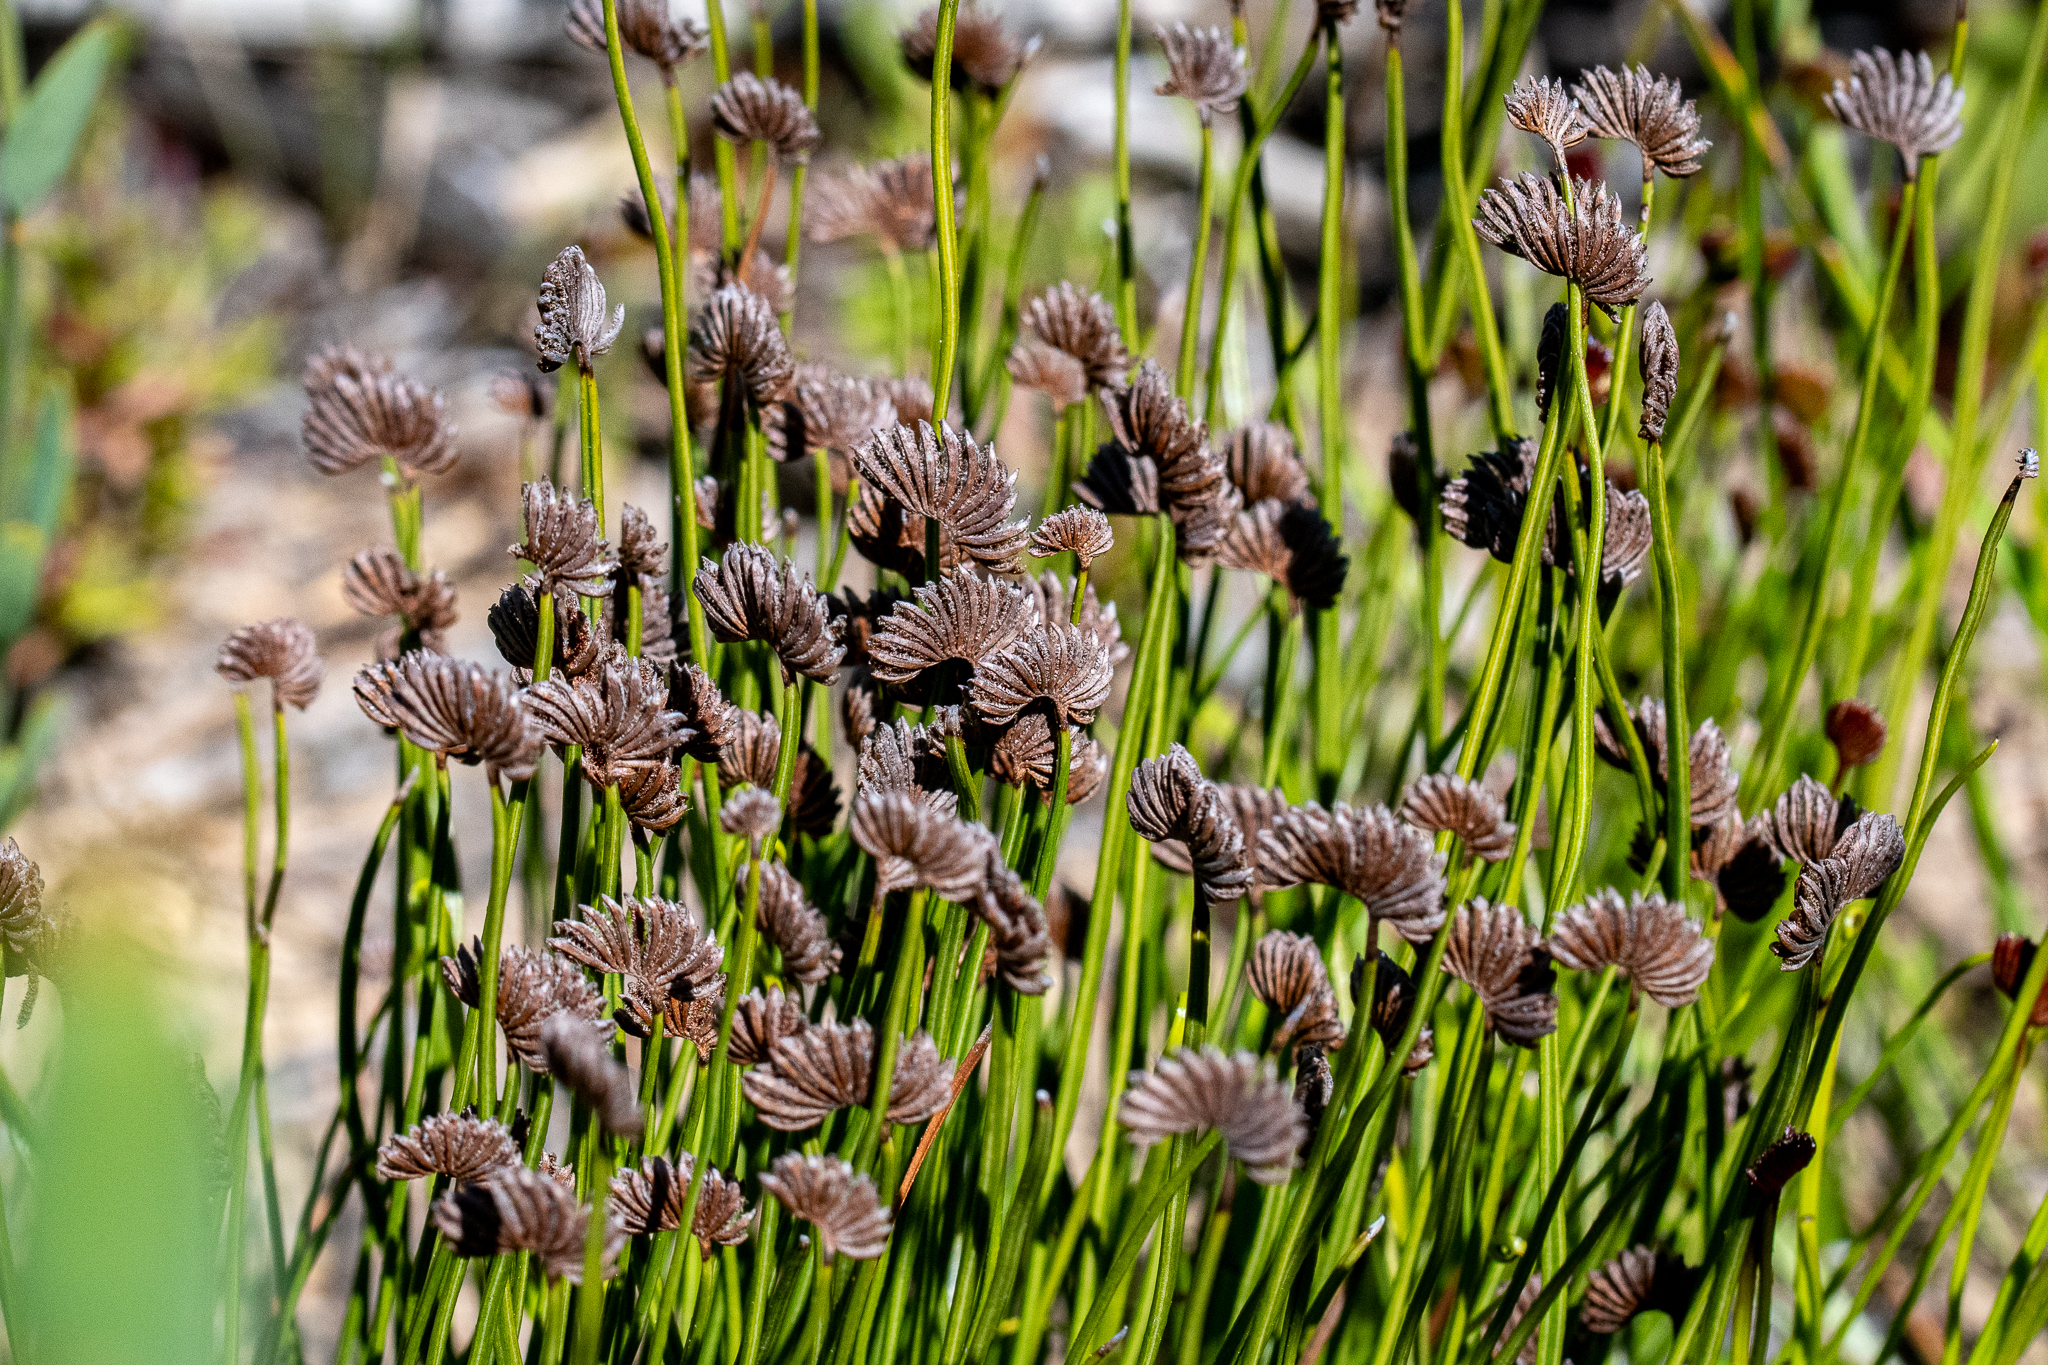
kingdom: Plantae
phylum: Tracheophyta
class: Polypodiopsida
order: Schizaeales
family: Schizaeaceae
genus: Schizaea
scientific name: Schizaea pectinata
